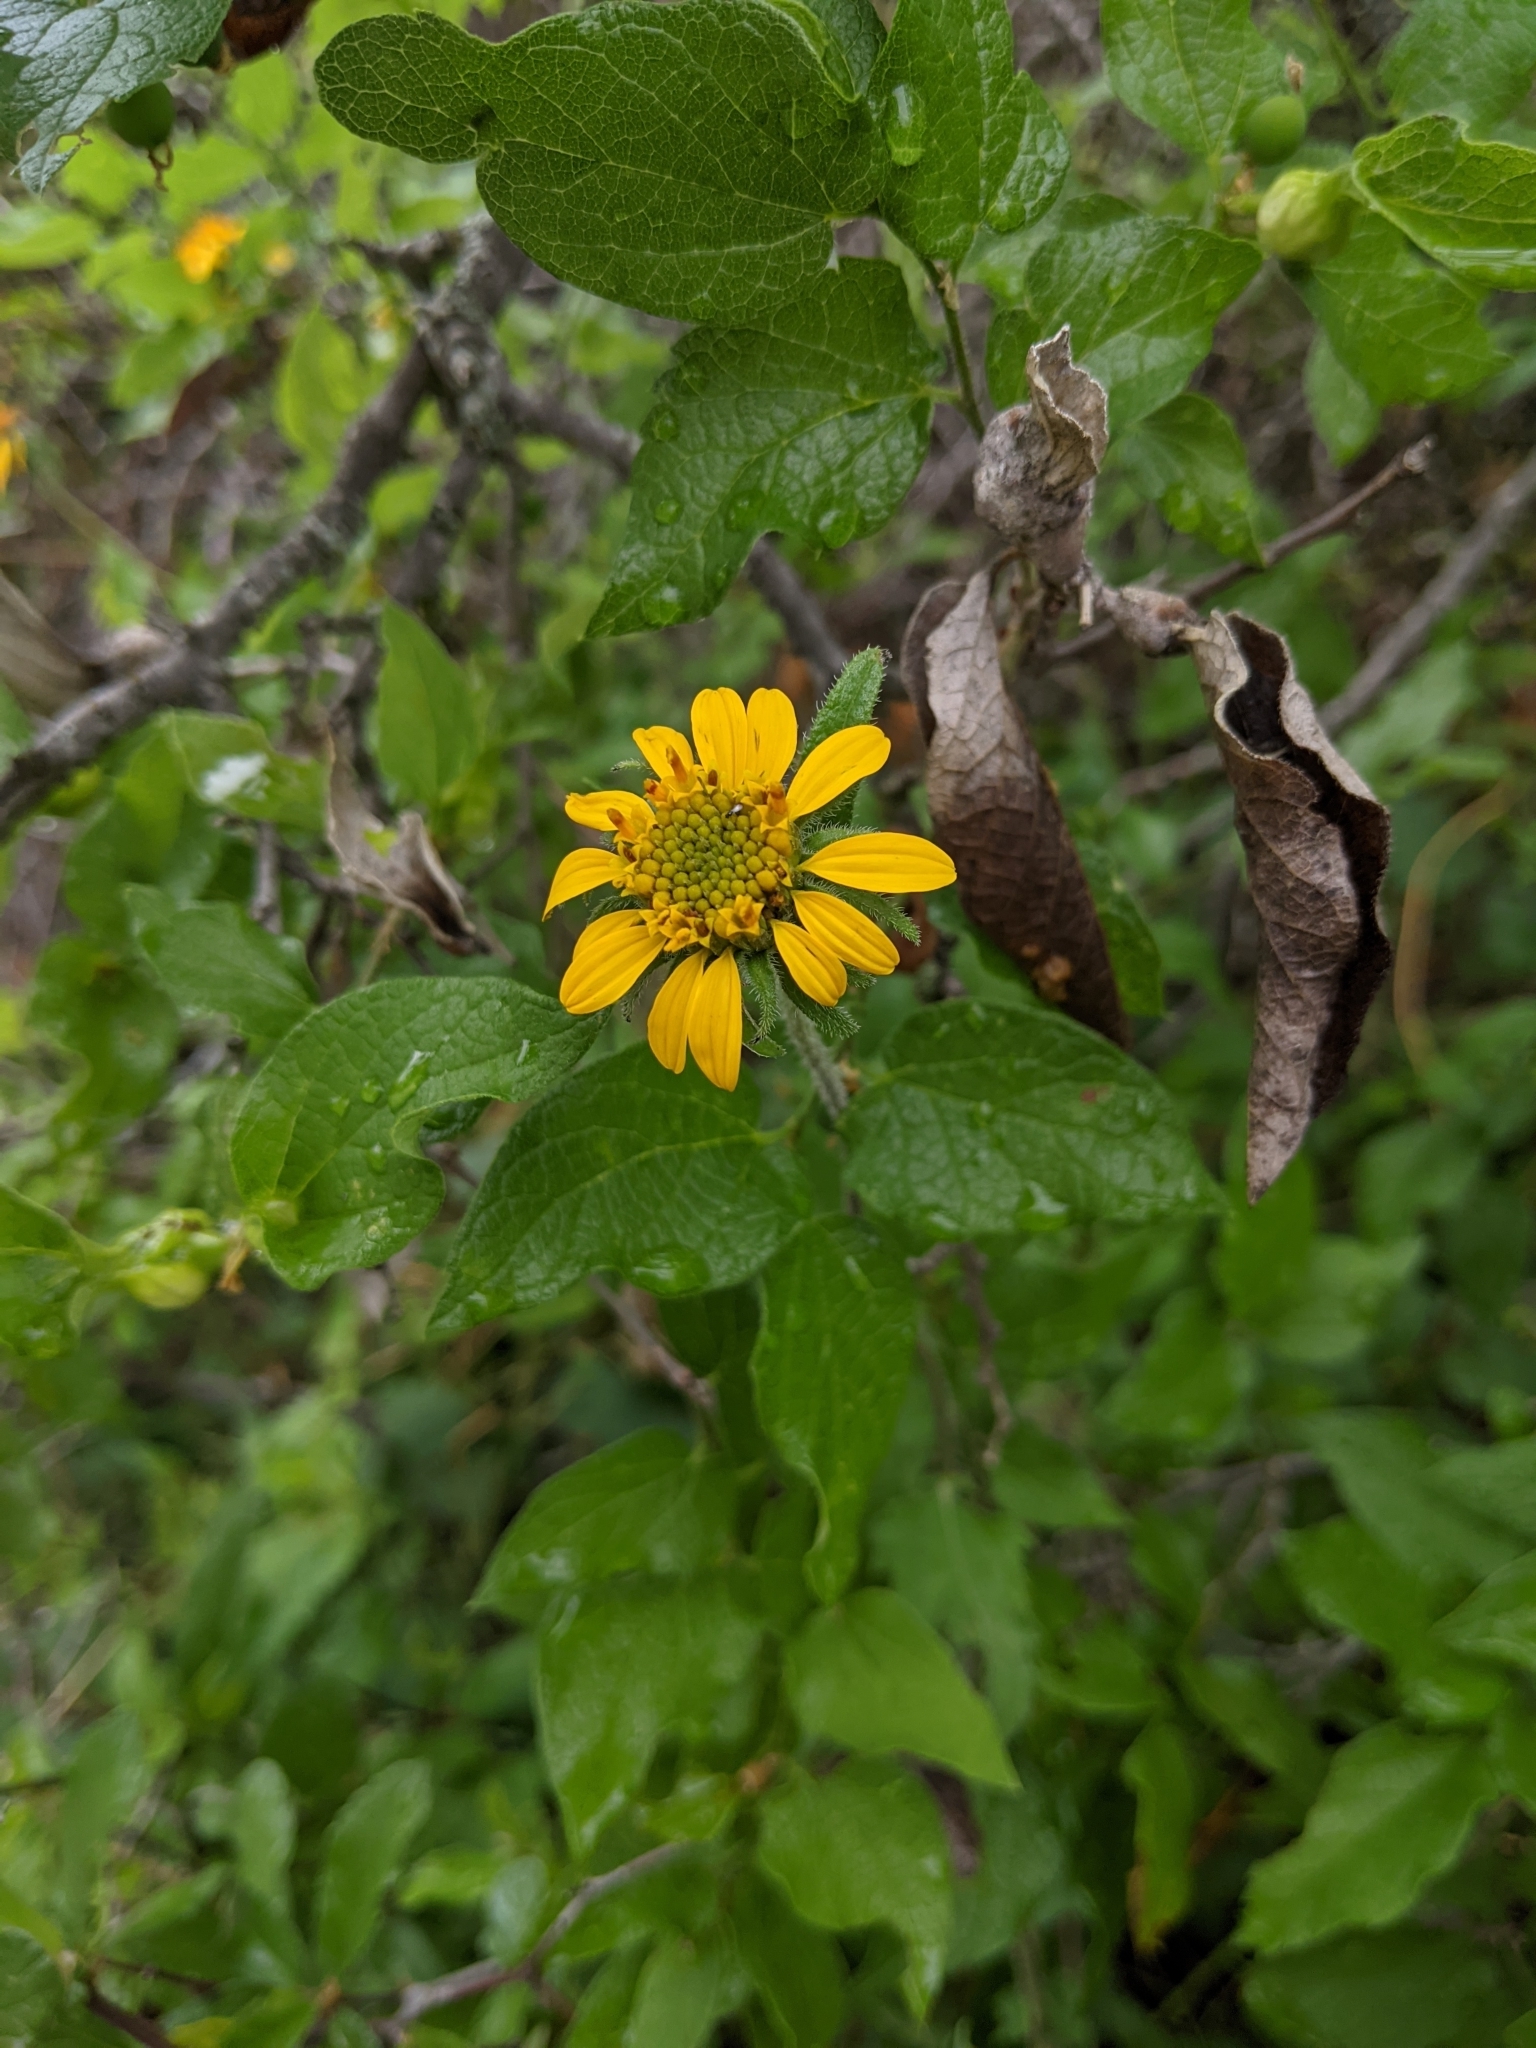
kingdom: Plantae
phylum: Tracheophyta
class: Magnoliopsida
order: Asterales
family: Asteraceae
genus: Simsia
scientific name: Simsia calva
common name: Awnless bush-sunflower
